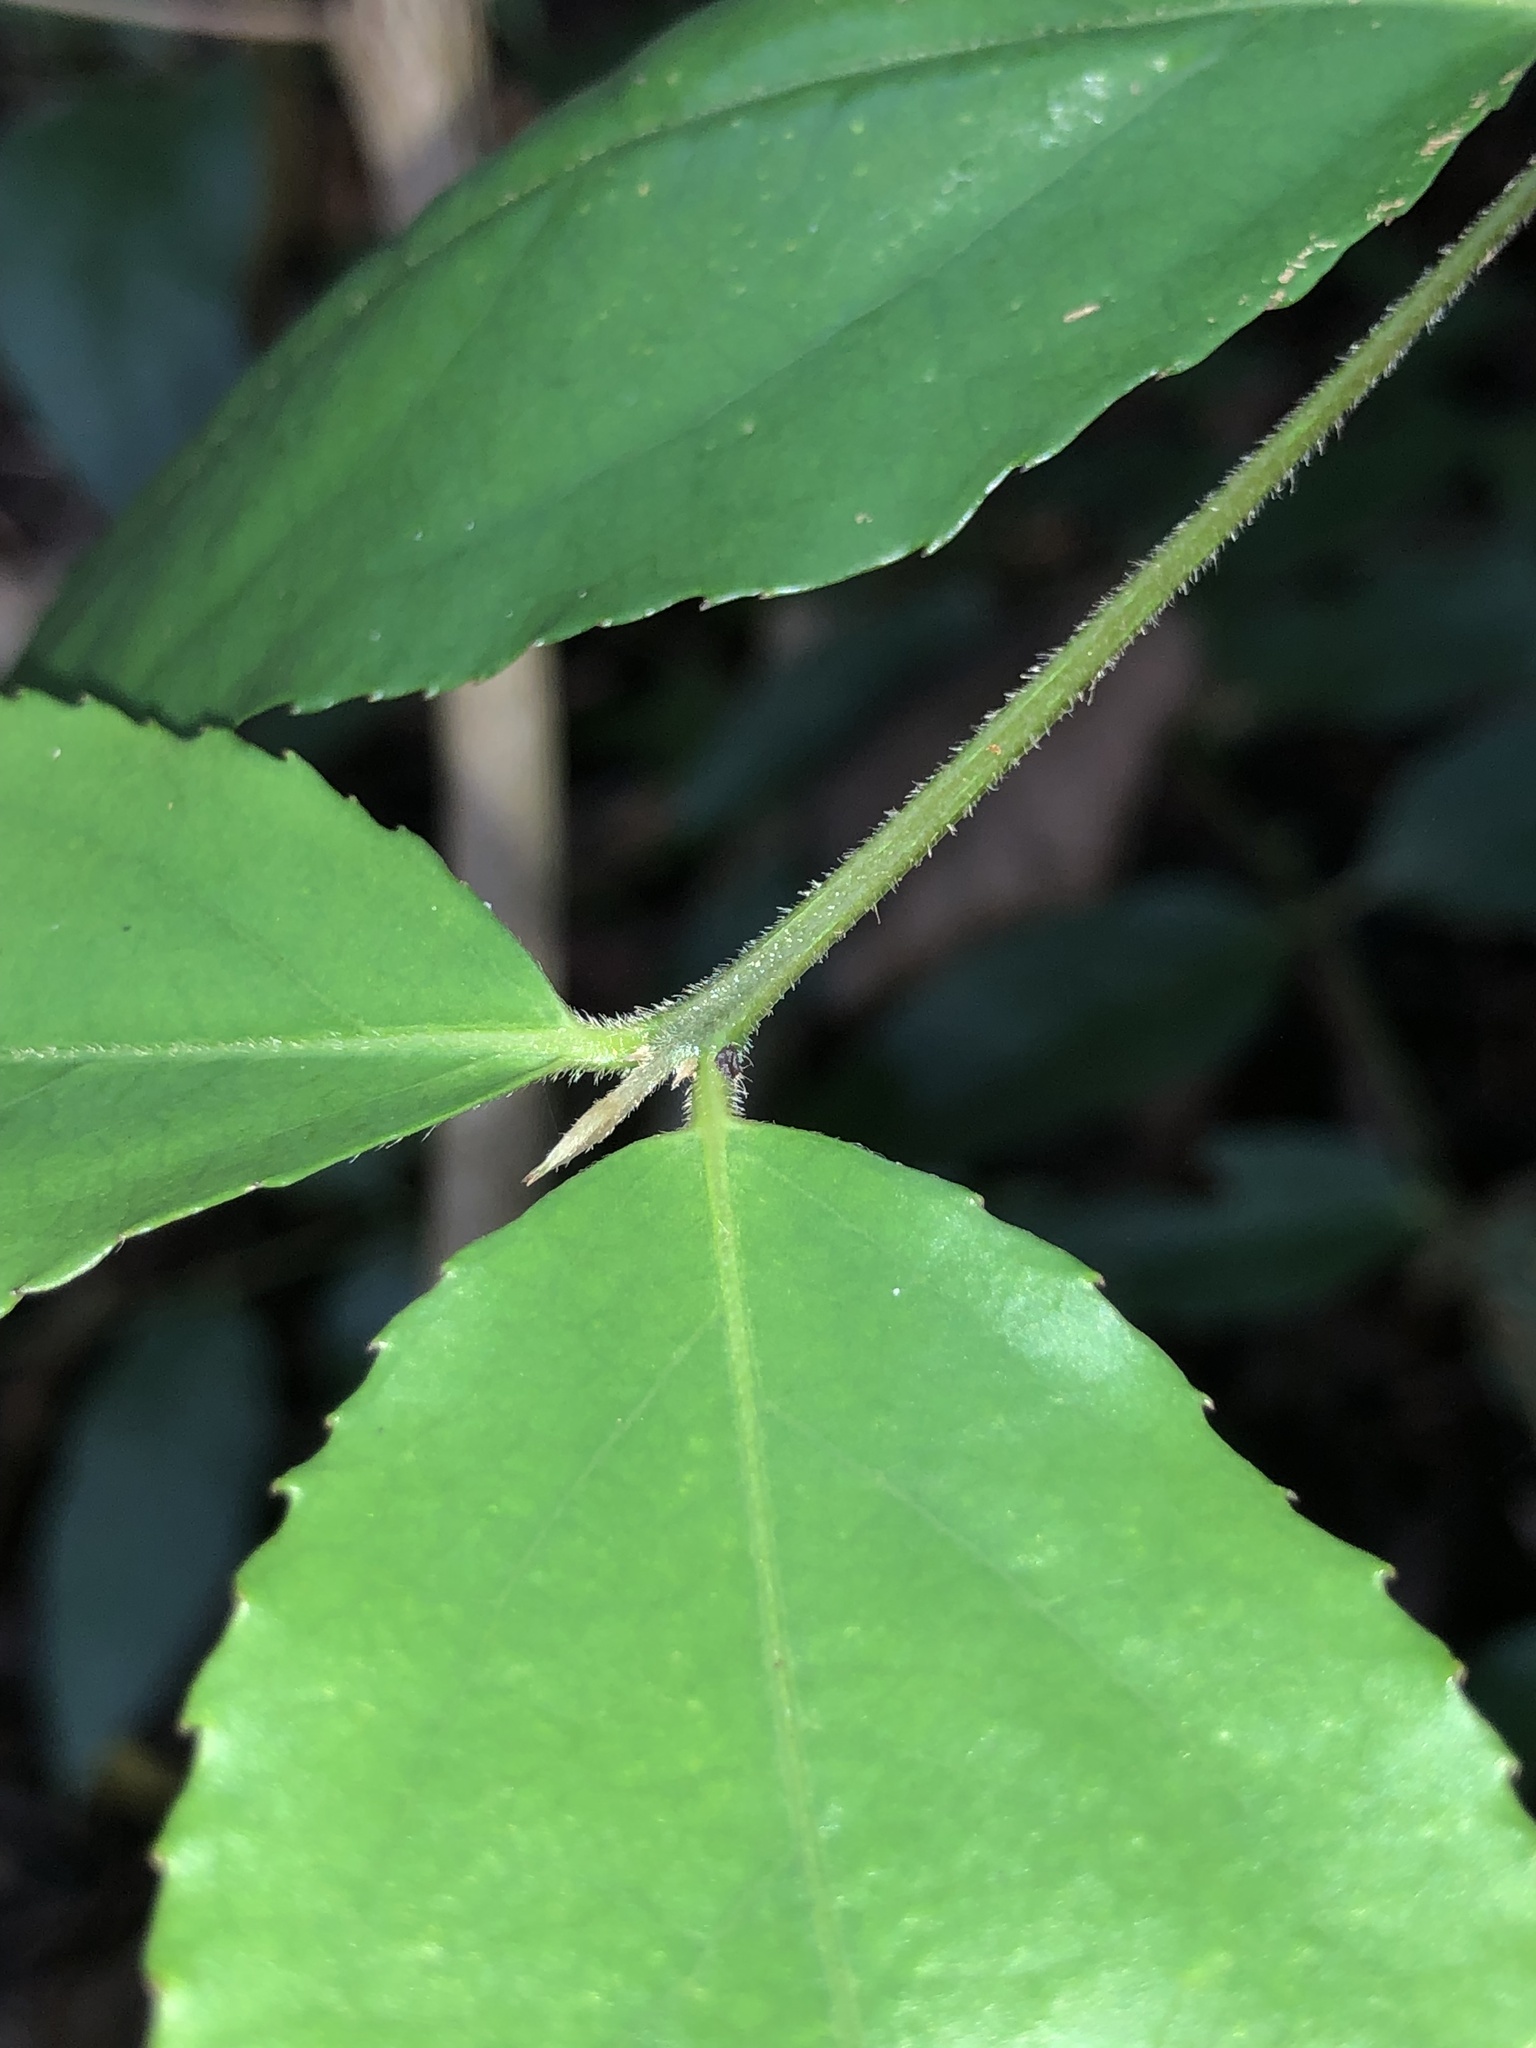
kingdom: Plantae
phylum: Tracheophyta
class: Magnoliopsida
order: Laurales
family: Atherospermataceae
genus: Daphnandra
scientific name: Daphnandra melasmena
